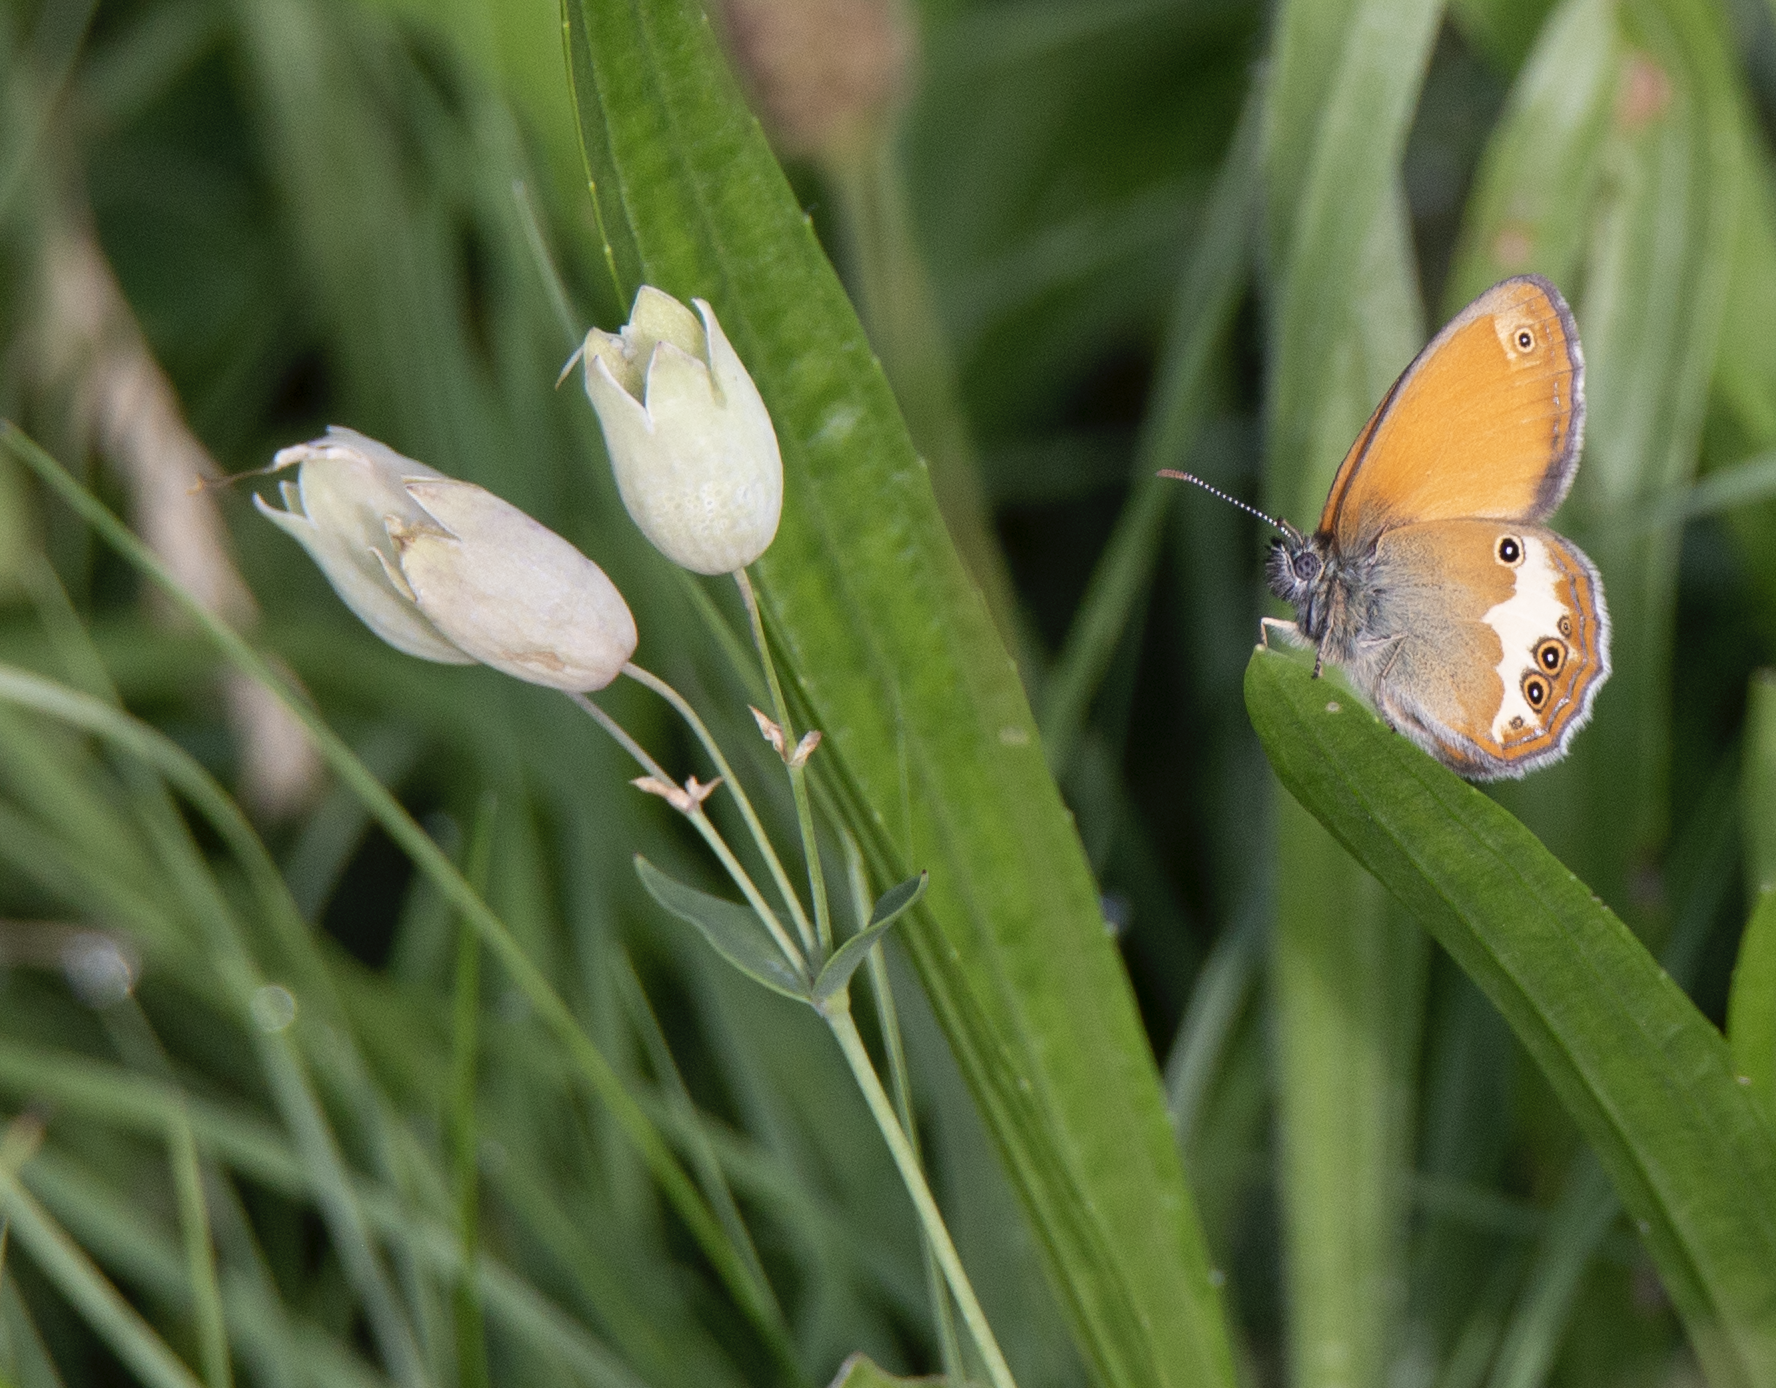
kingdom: Animalia
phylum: Arthropoda
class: Insecta
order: Lepidoptera
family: Nymphalidae
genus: Coenonympha
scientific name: Coenonympha arcania
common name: Pearly heath
